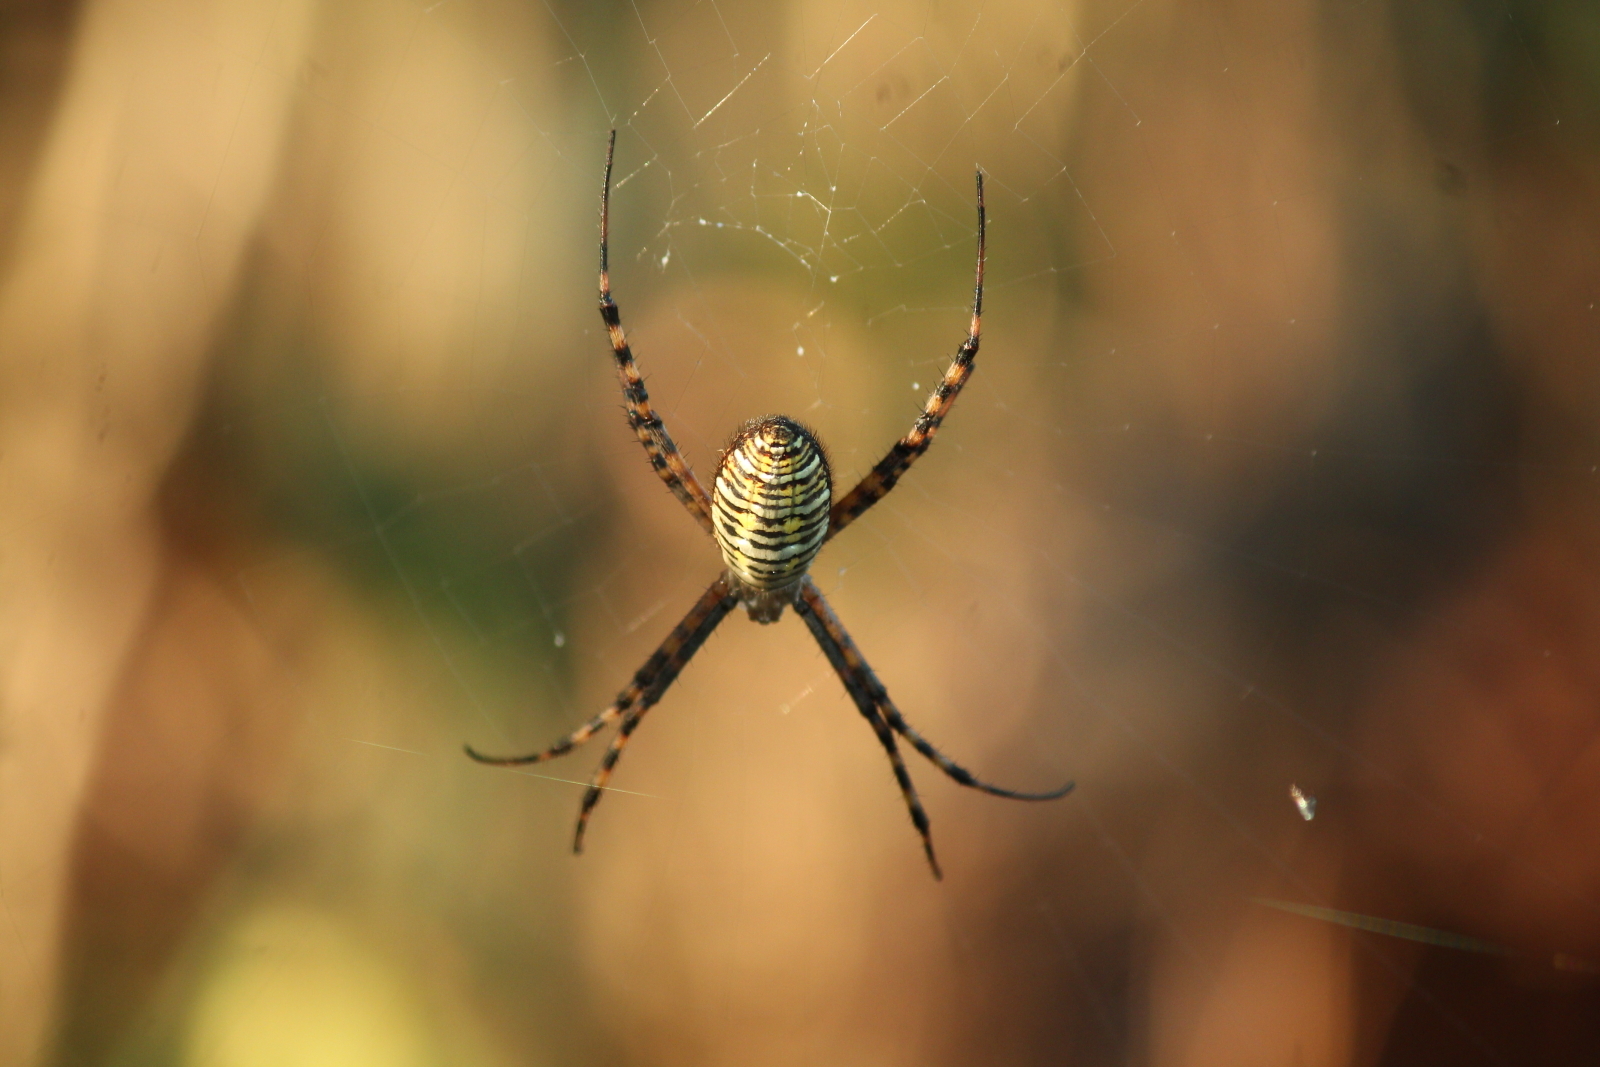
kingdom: Animalia
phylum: Arthropoda
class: Arachnida
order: Araneae
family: Araneidae
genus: Argiope
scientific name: Argiope trifasciata
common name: Banded garden spider
